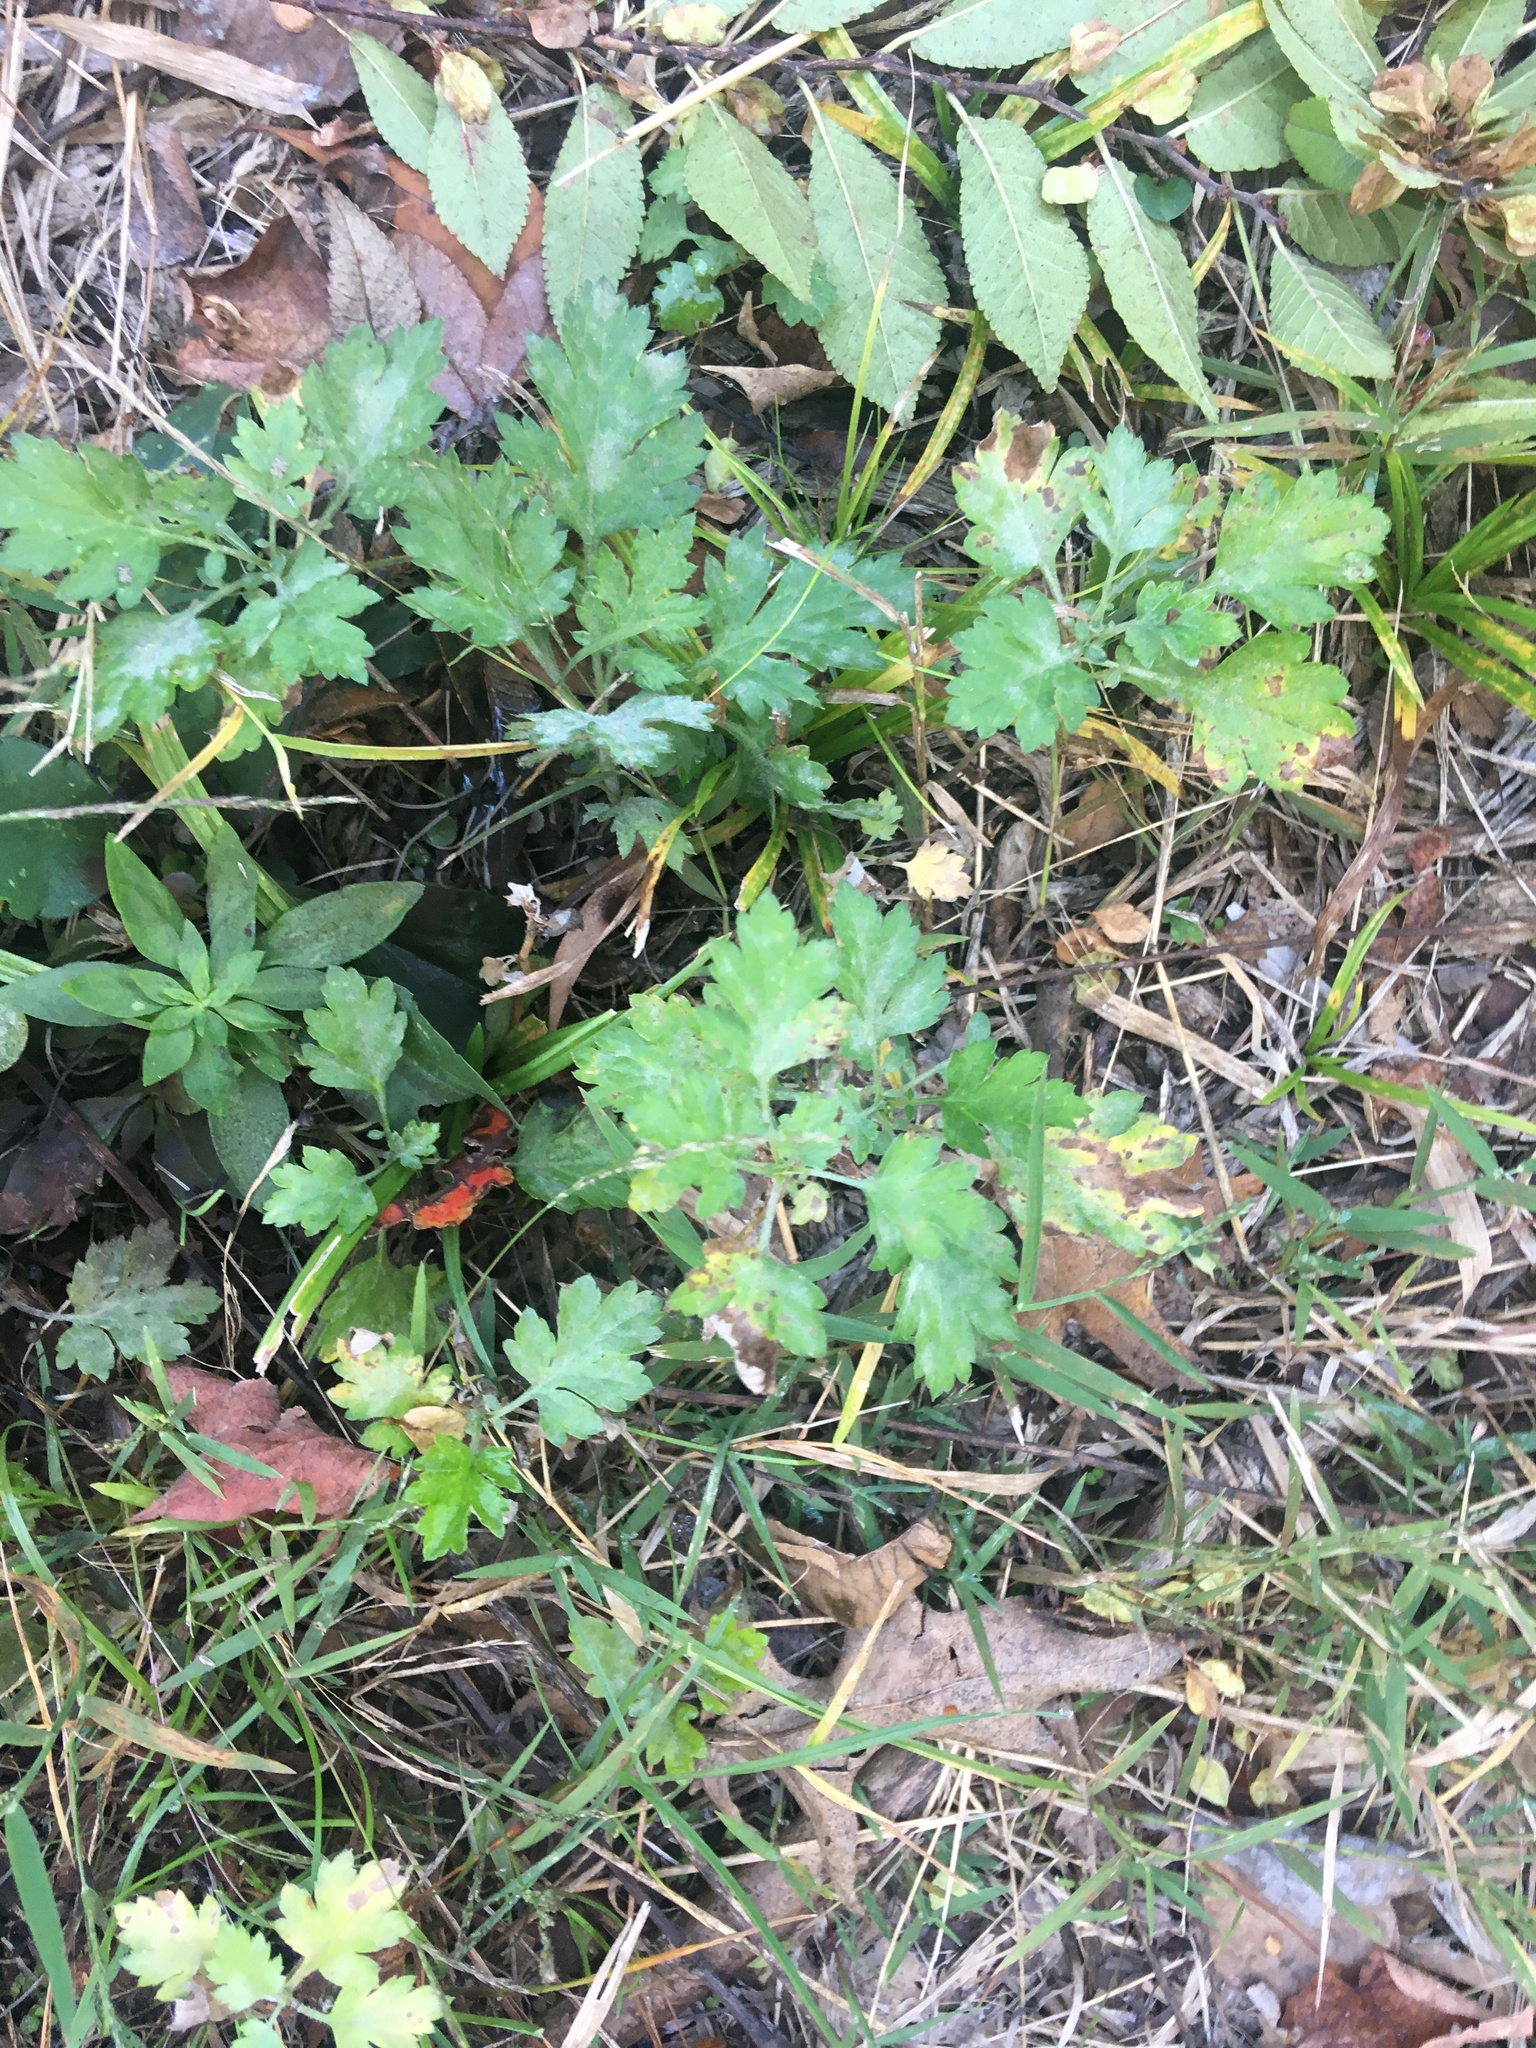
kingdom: Plantae
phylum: Tracheophyta
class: Magnoliopsida
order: Asterales
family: Asteraceae
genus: Artemisia
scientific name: Artemisia vulgaris
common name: Mugwort
